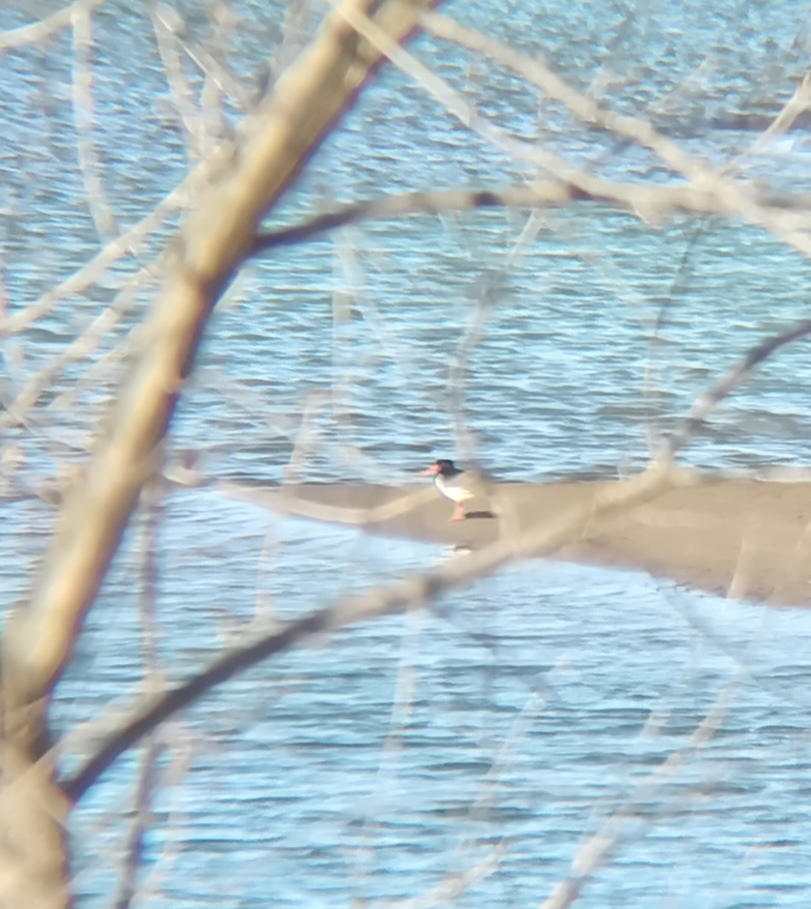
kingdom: Animalia
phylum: Chordata
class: Aves
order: Charadriiformes
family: Haematopodidae
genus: Haematopus
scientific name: Haematopus ostralegus
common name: Eurasian oystercatcher
